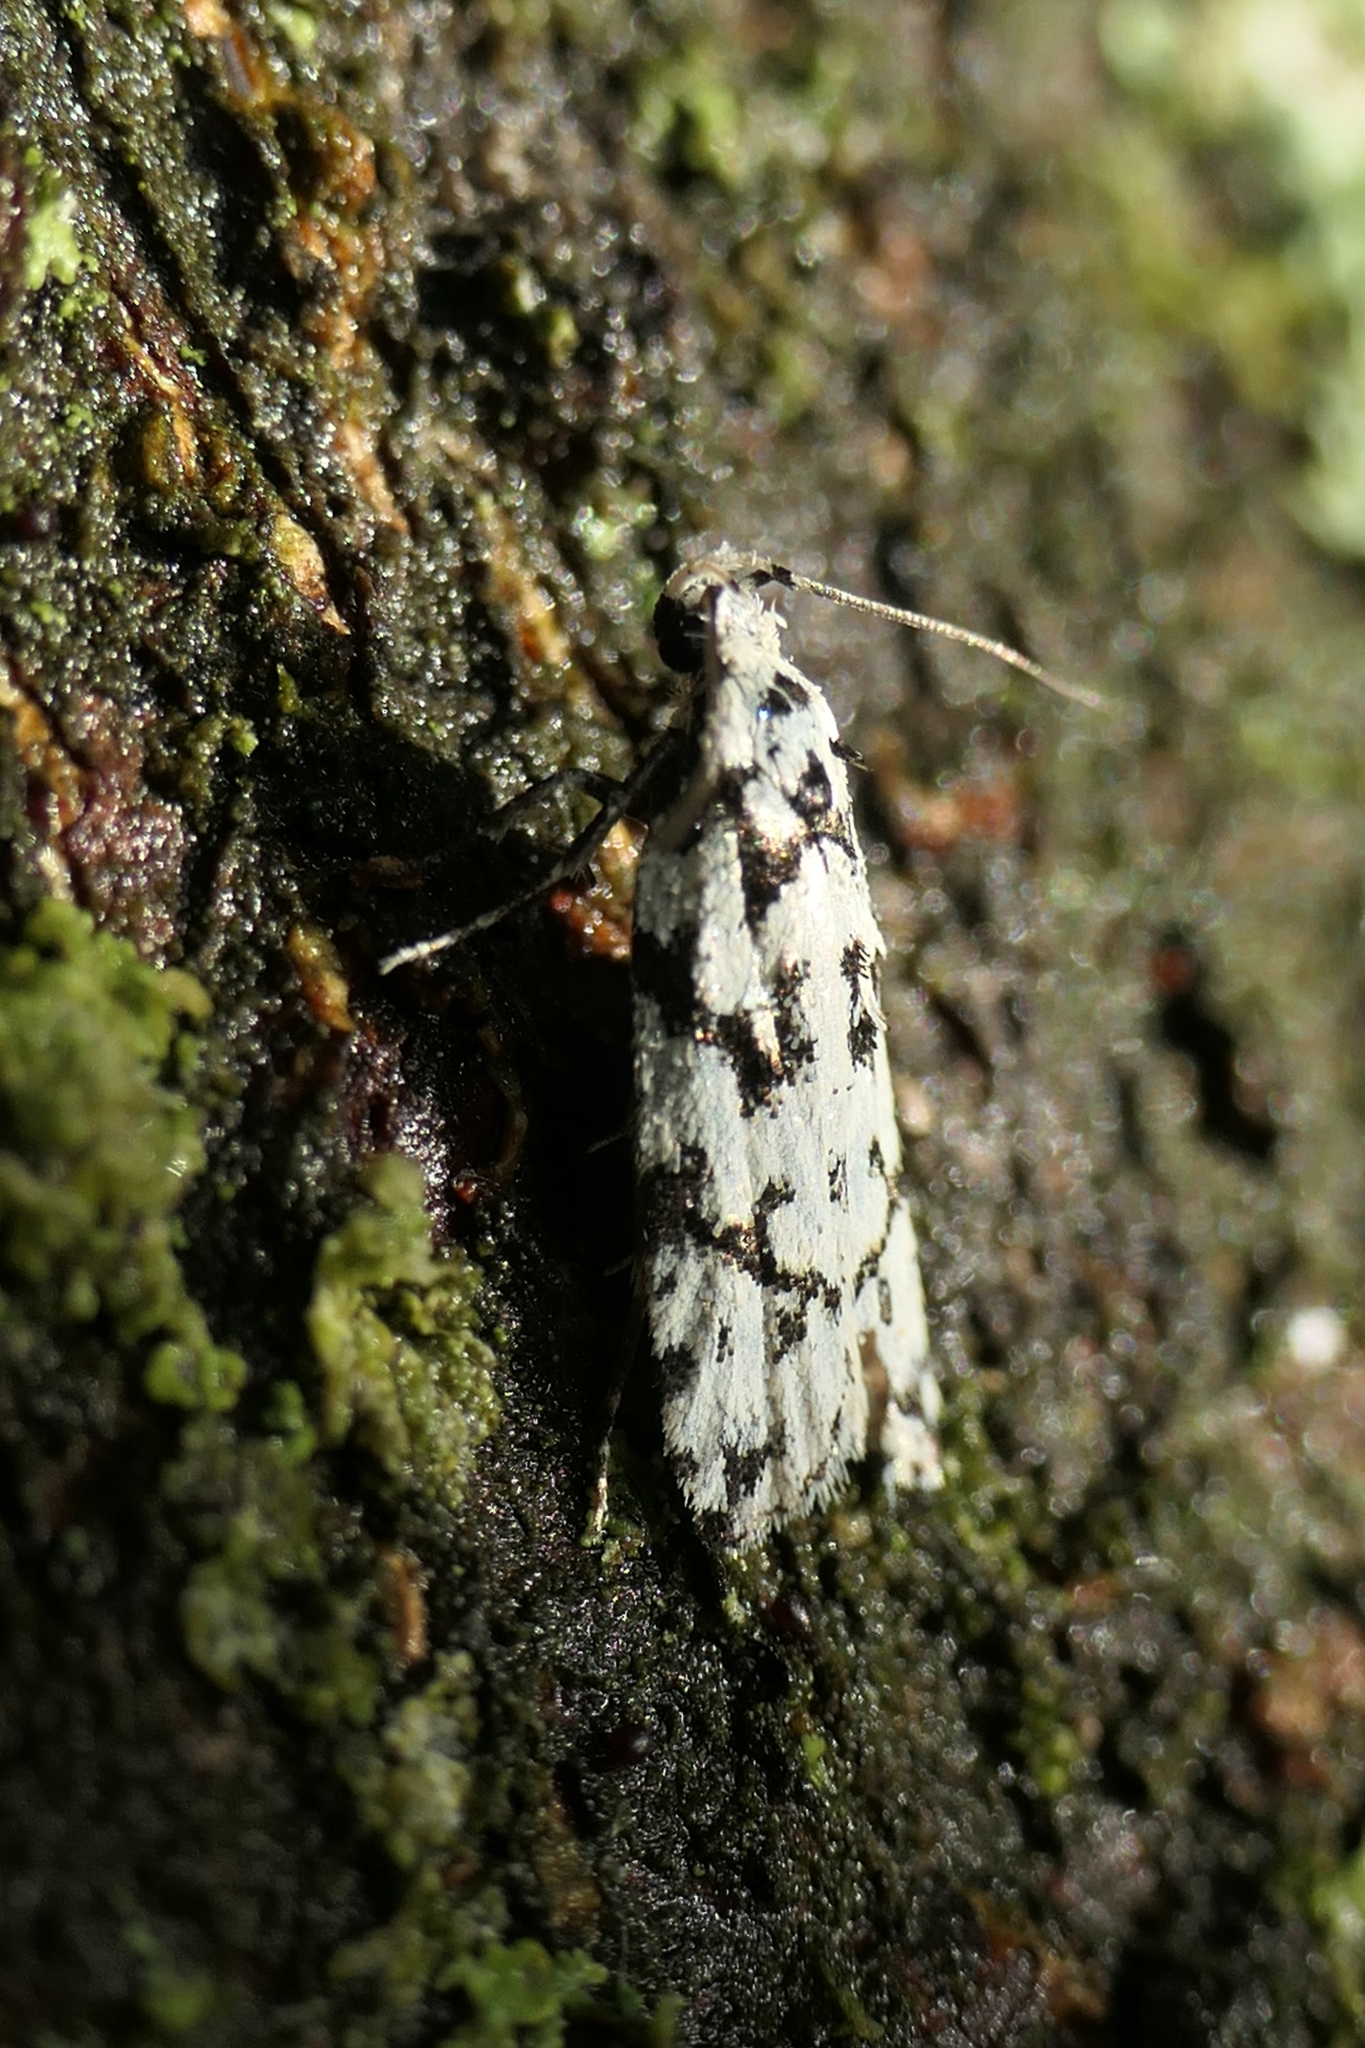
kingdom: Animalia
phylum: Arthropoda
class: Insecta
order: Lepidoptera
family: Oecophoridae
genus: Izatha
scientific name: Izatha katadiktya
